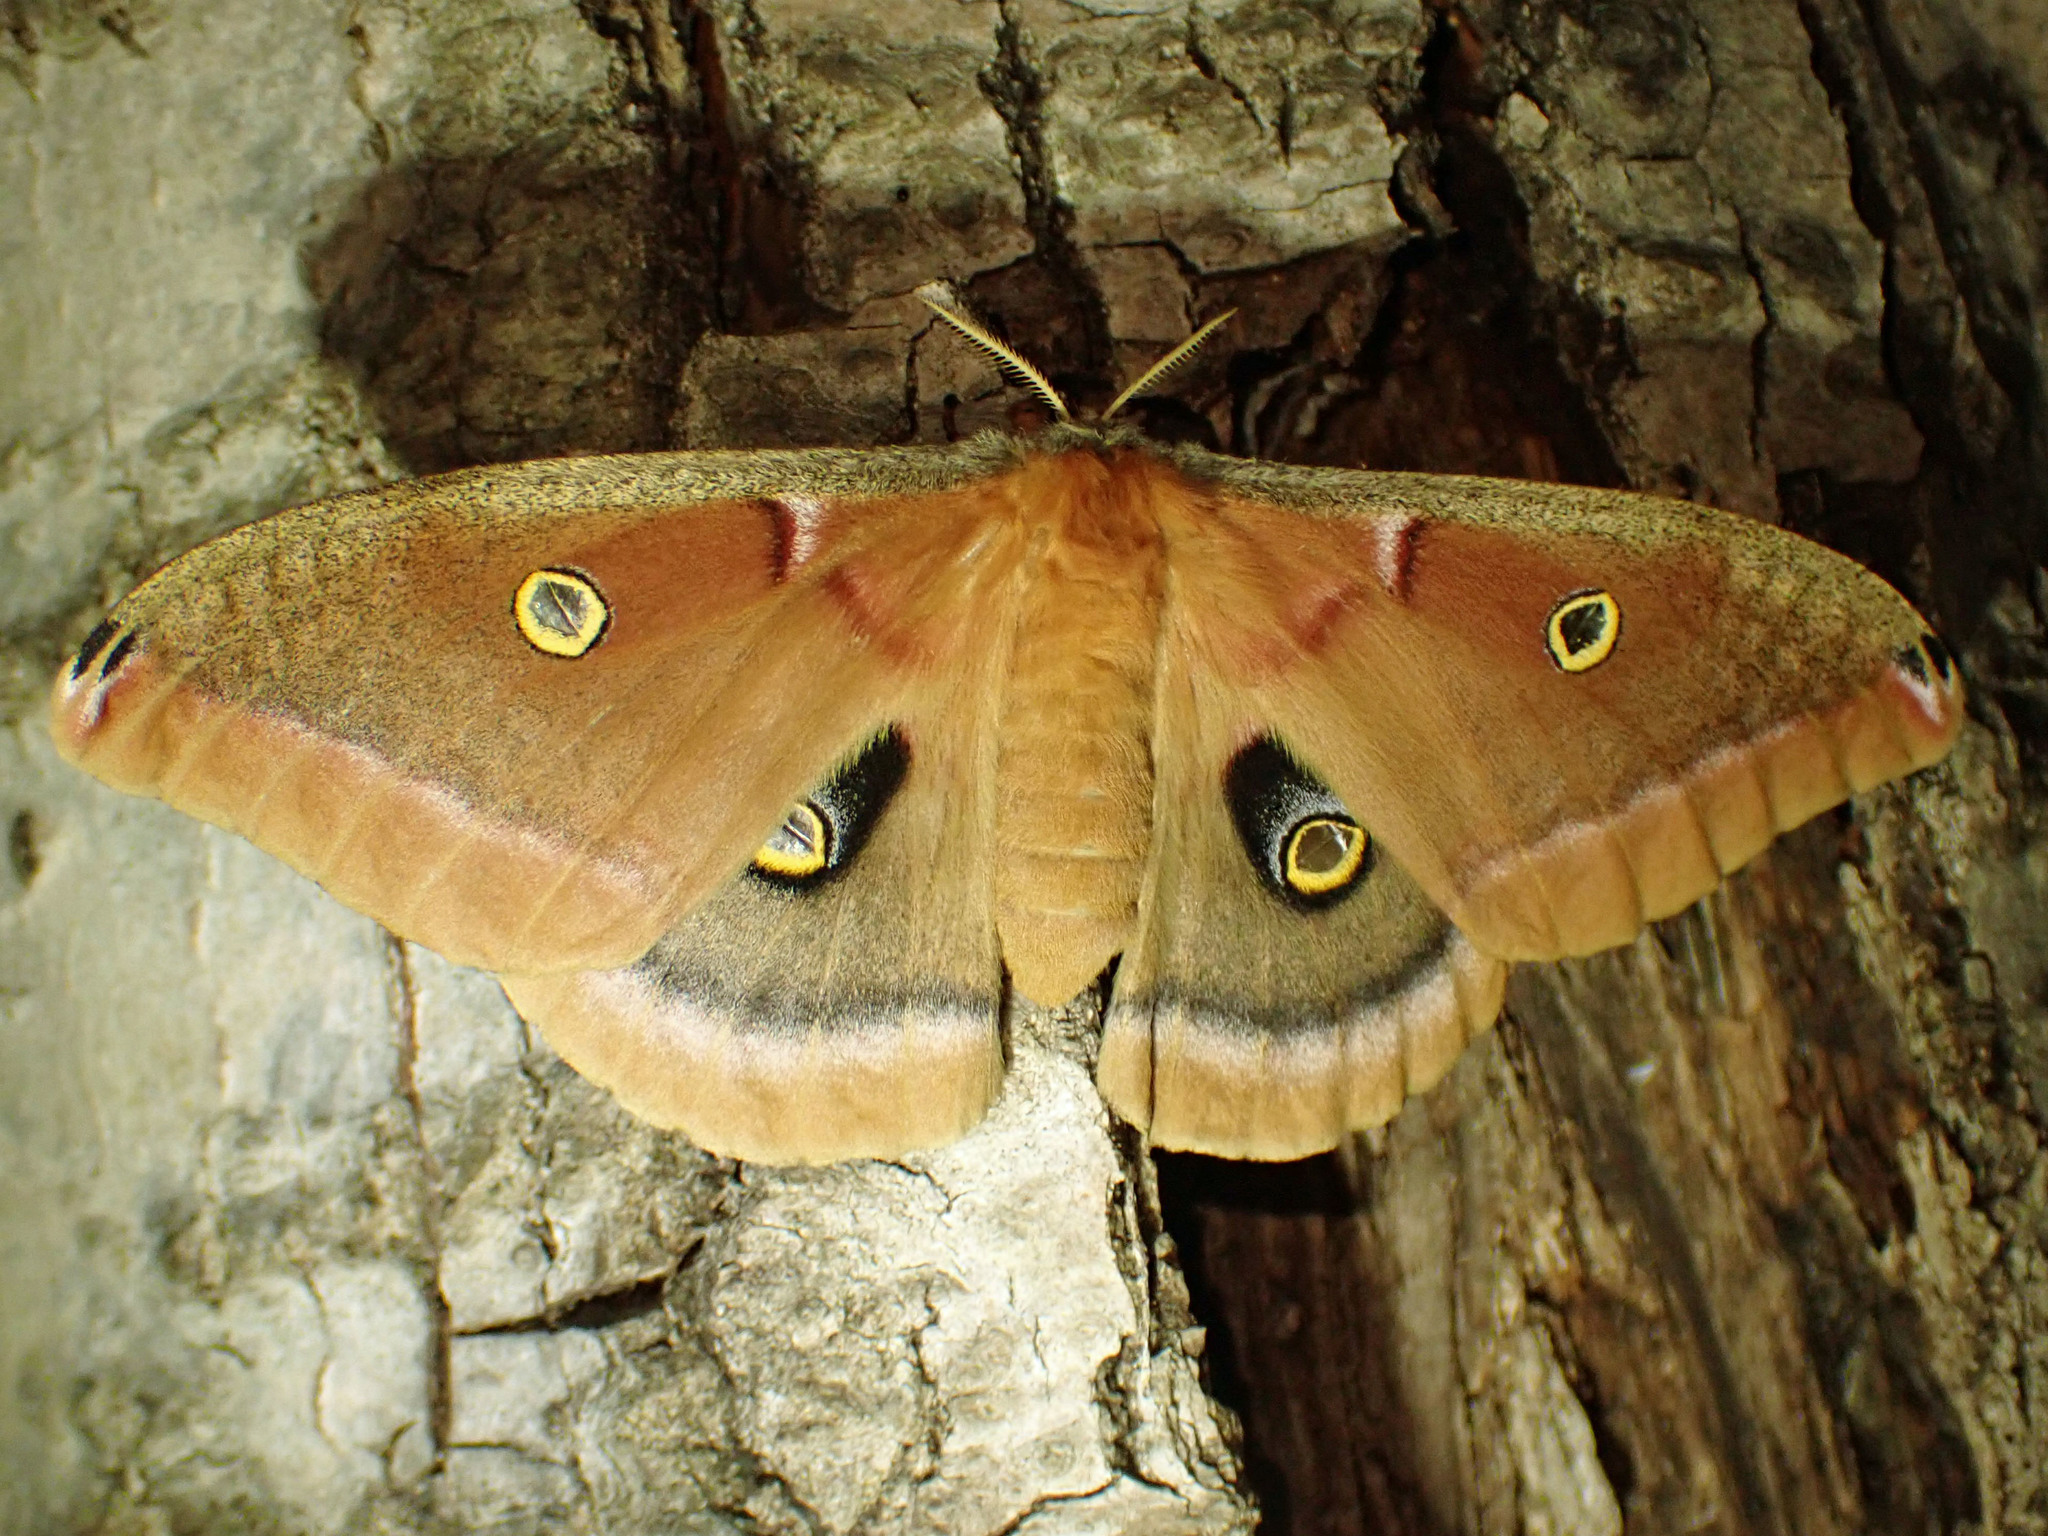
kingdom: Animalia
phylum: Arthropoda
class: Insecta
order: Lepidoptera
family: Saturniidae
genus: Antheraea
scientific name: Antheraea polyphemus
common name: Polyphemus moth
